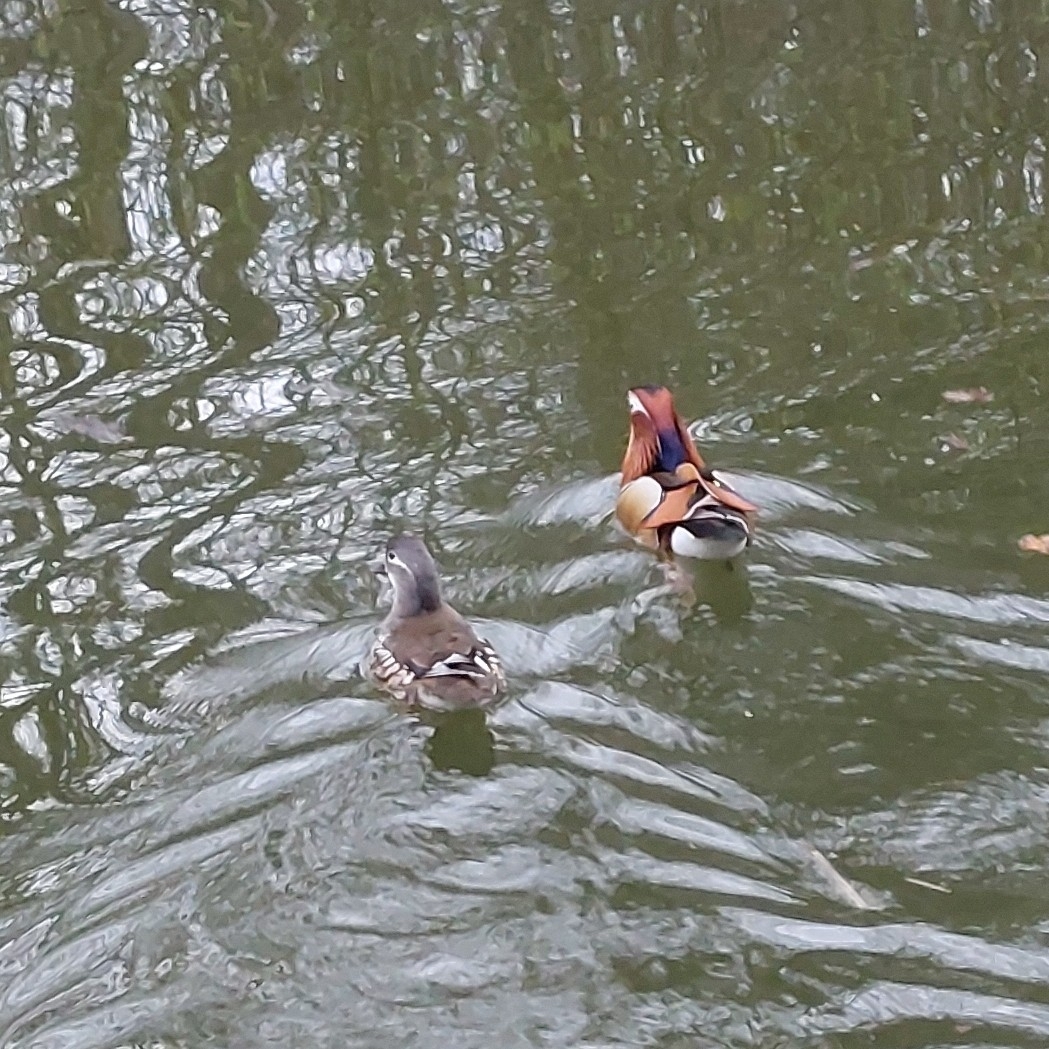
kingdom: Animalia
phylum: Chordata
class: Aves
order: Anseriformes
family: Anatidae
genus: Aix
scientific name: Aix galericulata
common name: Mandarin duck
